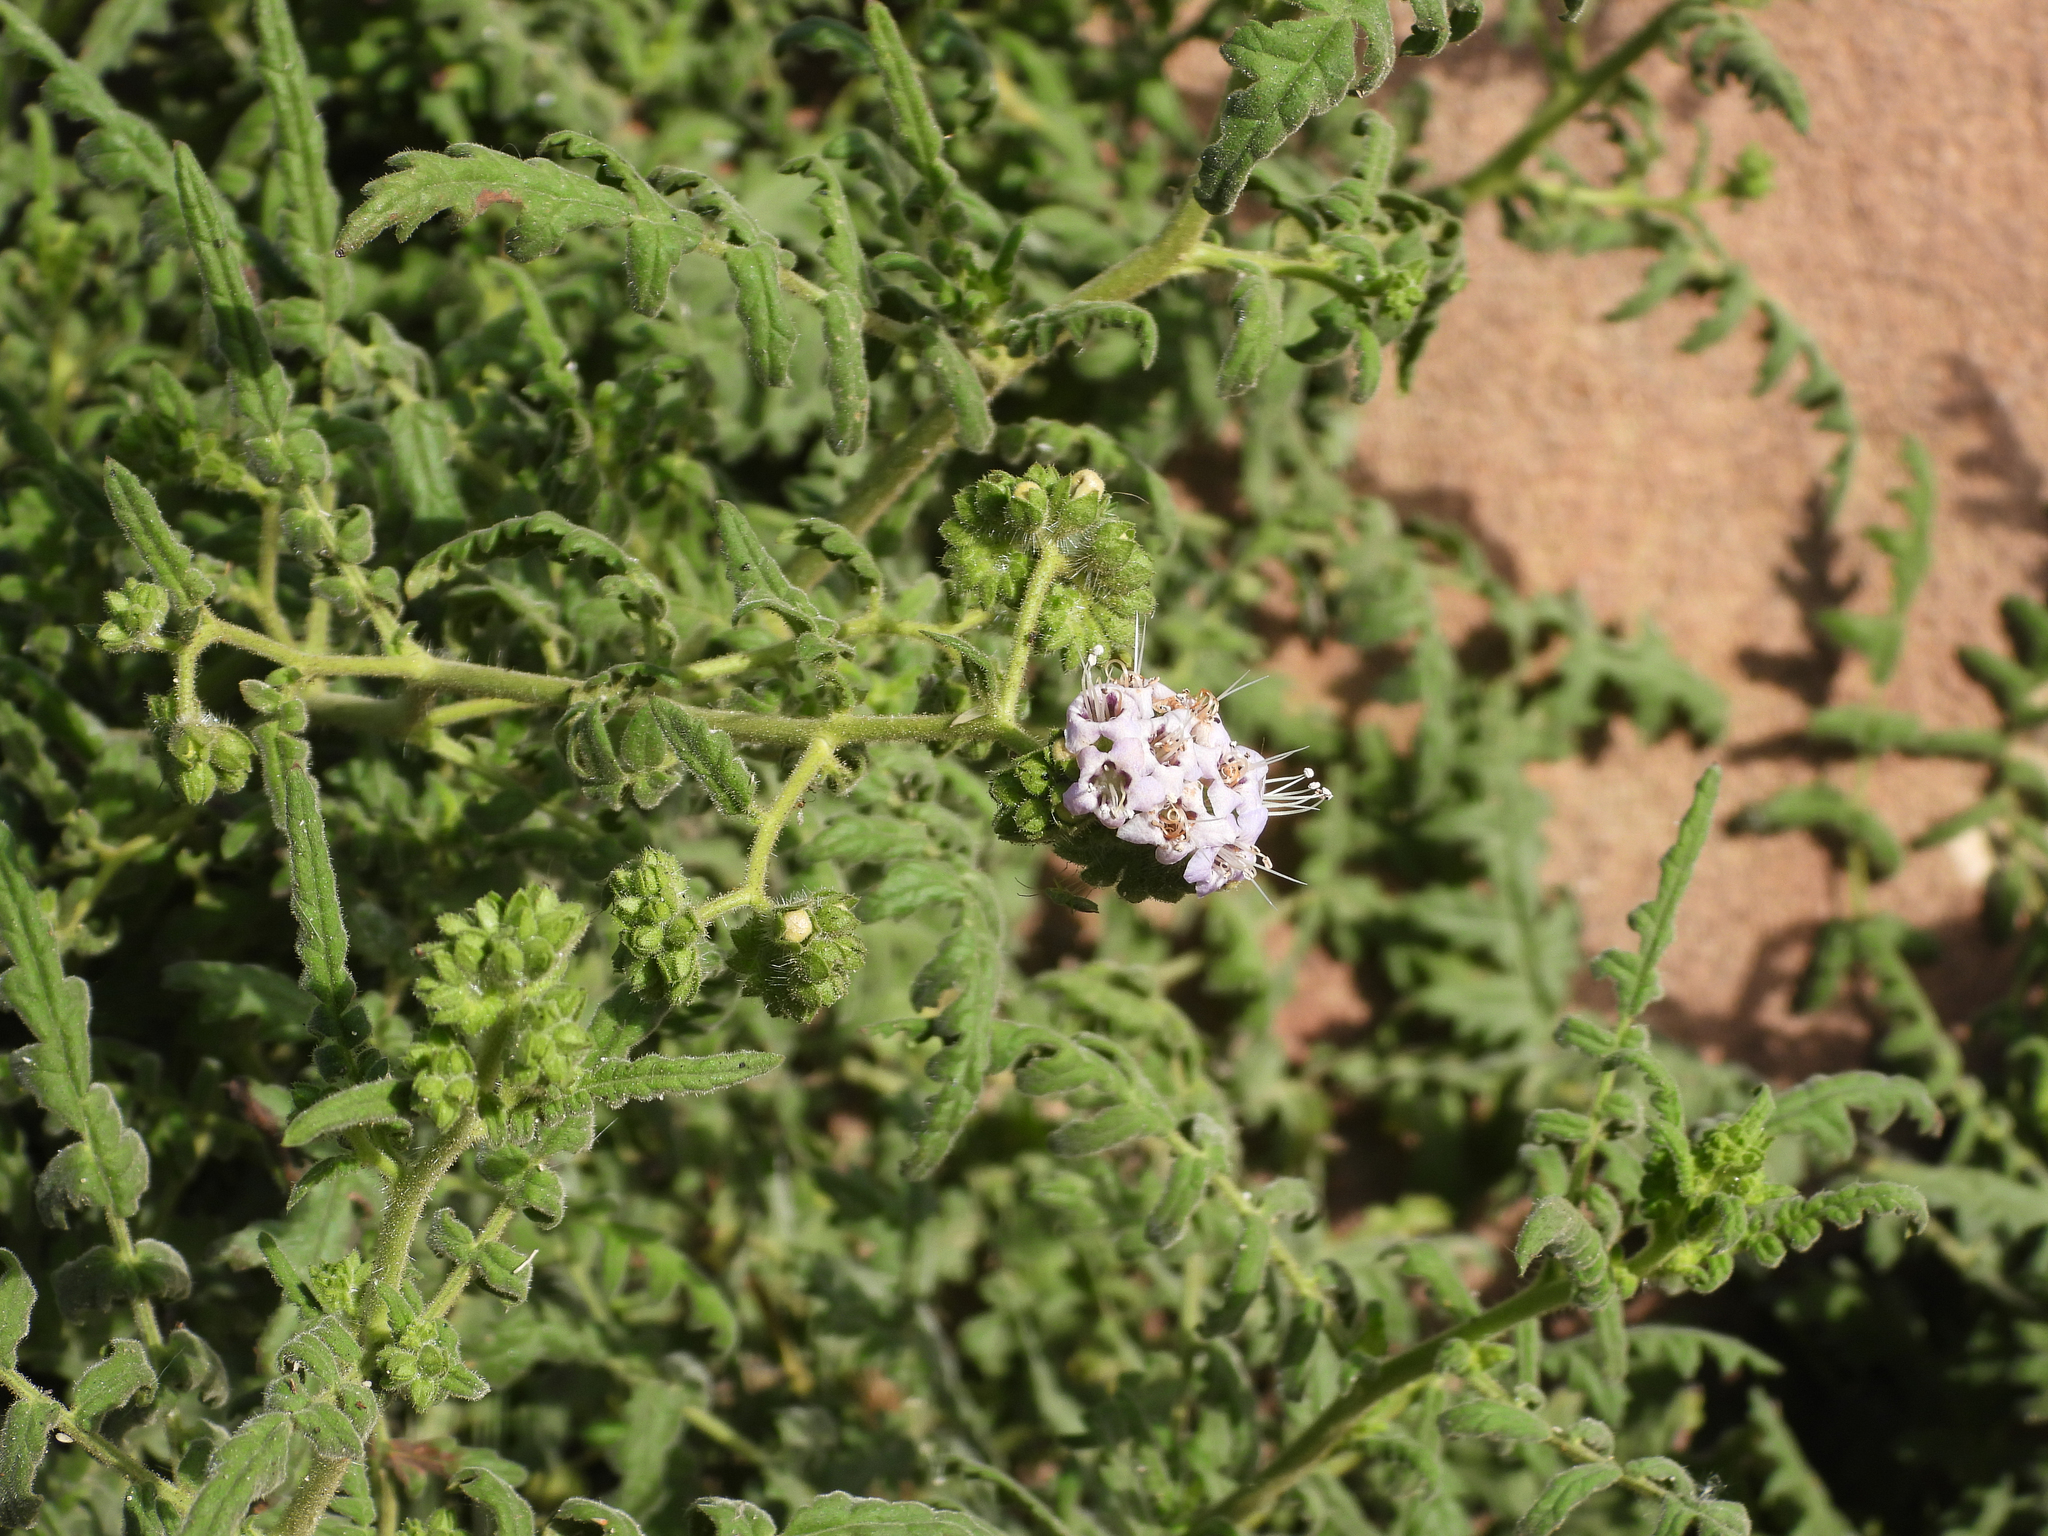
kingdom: Plantae
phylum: Tracheophyta
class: Magnoliopsida
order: Boraginales
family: Hydrophyllaceae
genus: Phacelia
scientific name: Phacelia ramosissima
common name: Branching phacelia
